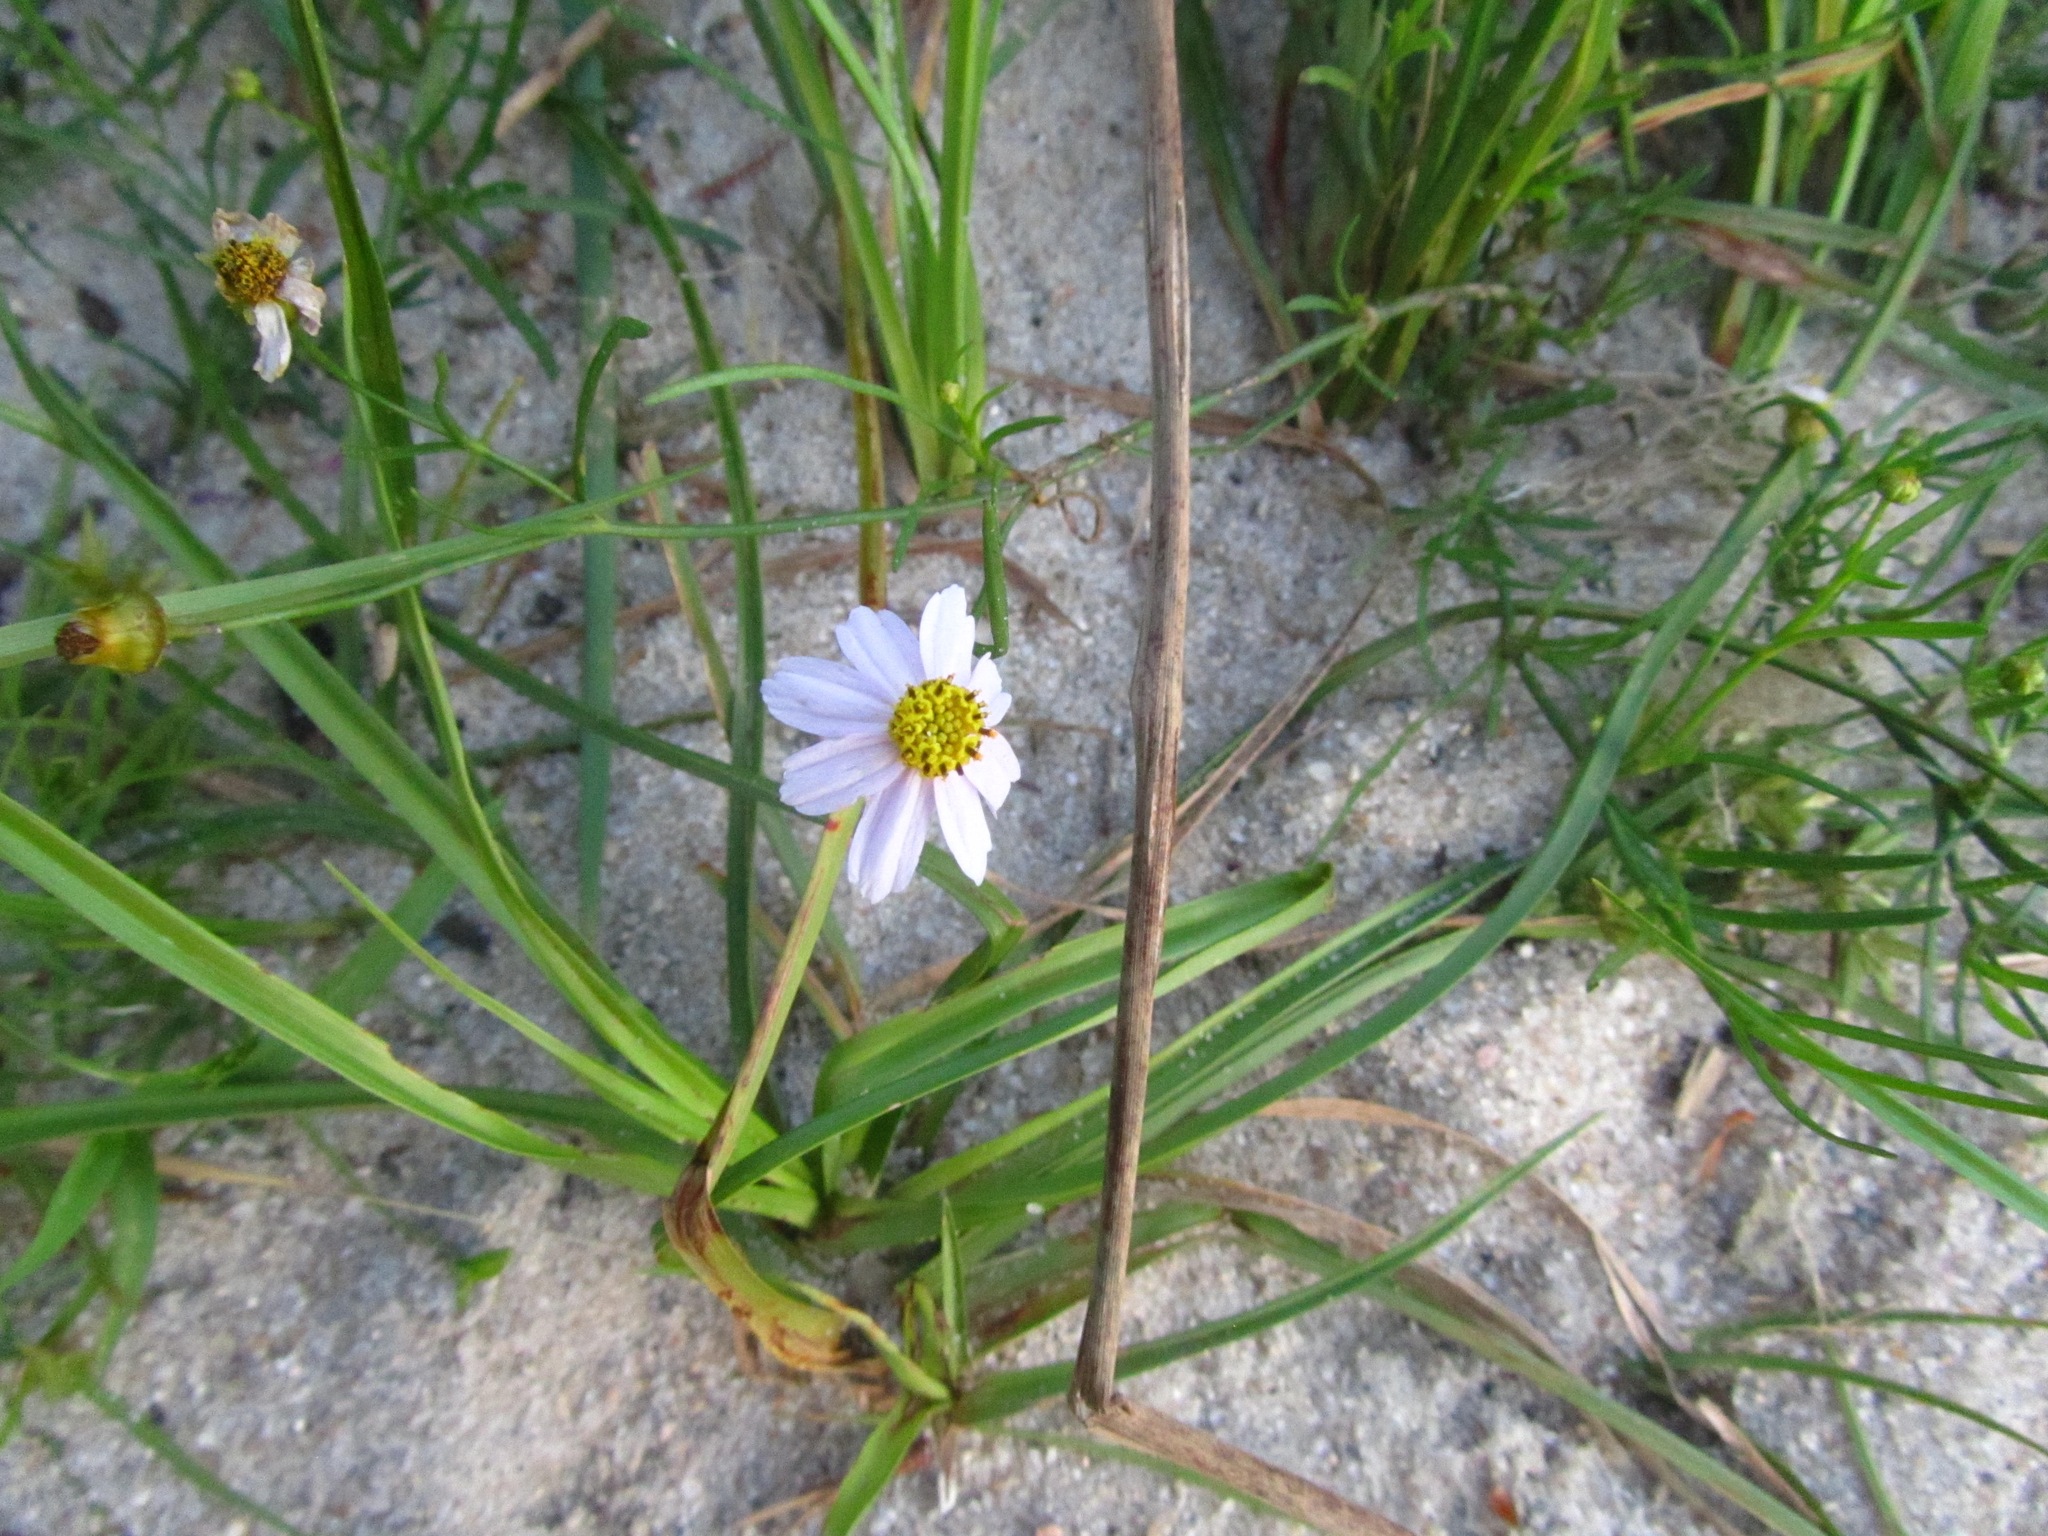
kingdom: Plantae
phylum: Tracheophyta
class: Magnoliopsida
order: Asterales
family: Asteraceae
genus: Coreopsis
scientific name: Coreopsis rosea
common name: Pink coreopsis
